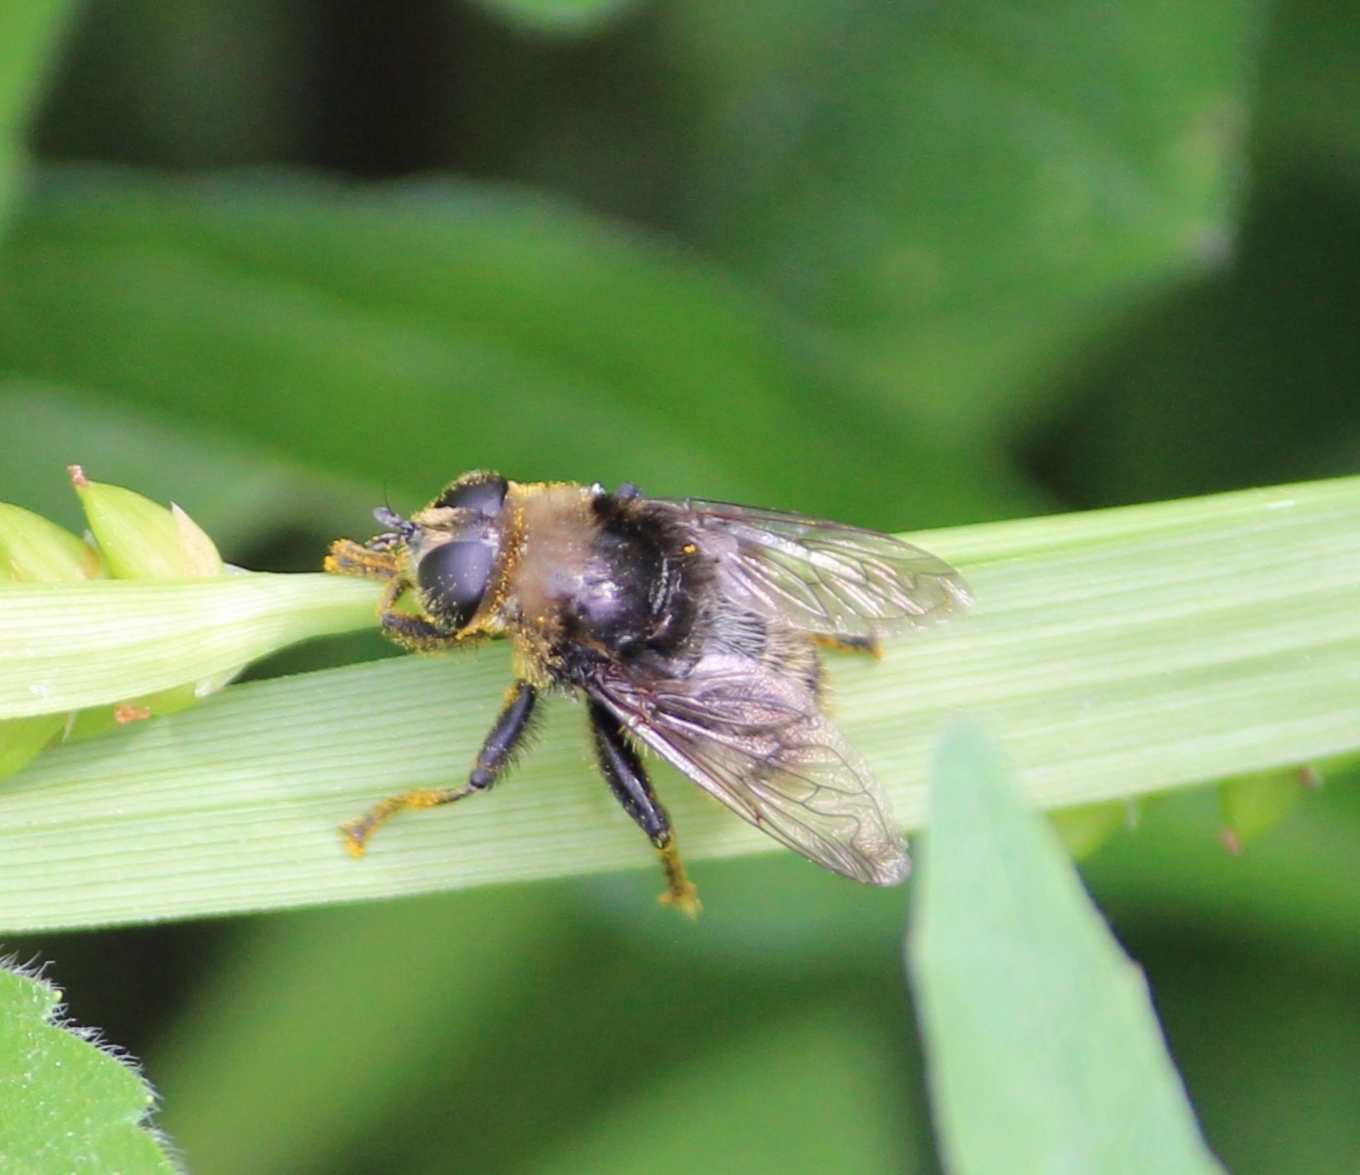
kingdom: Animalia
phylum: Arthropoda
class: Insecta
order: Diptera
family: Syrphidae
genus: Merodon
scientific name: Merodon equestris
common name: Greater bulb-fly
